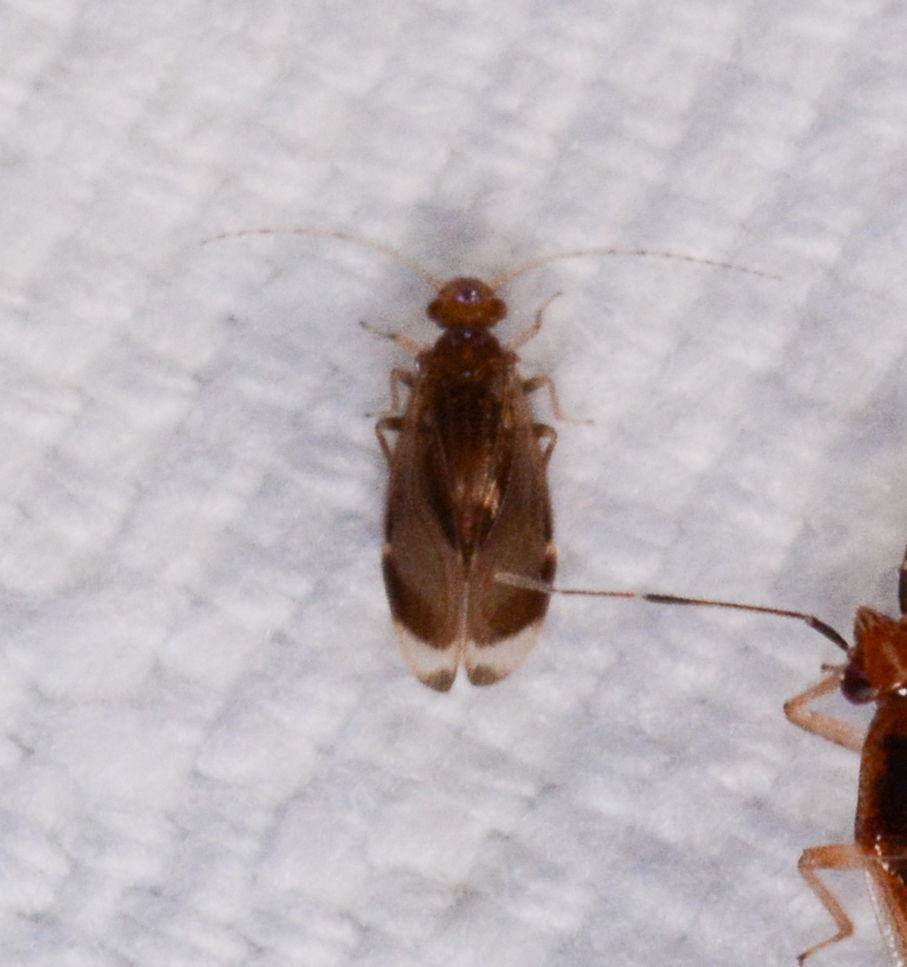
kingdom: Animalia
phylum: Arthropoda
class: Insecta
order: Psocodea
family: Amphipsocidae
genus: Polypsocus
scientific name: Polypsocus corruptus
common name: Corrupt barklouse
